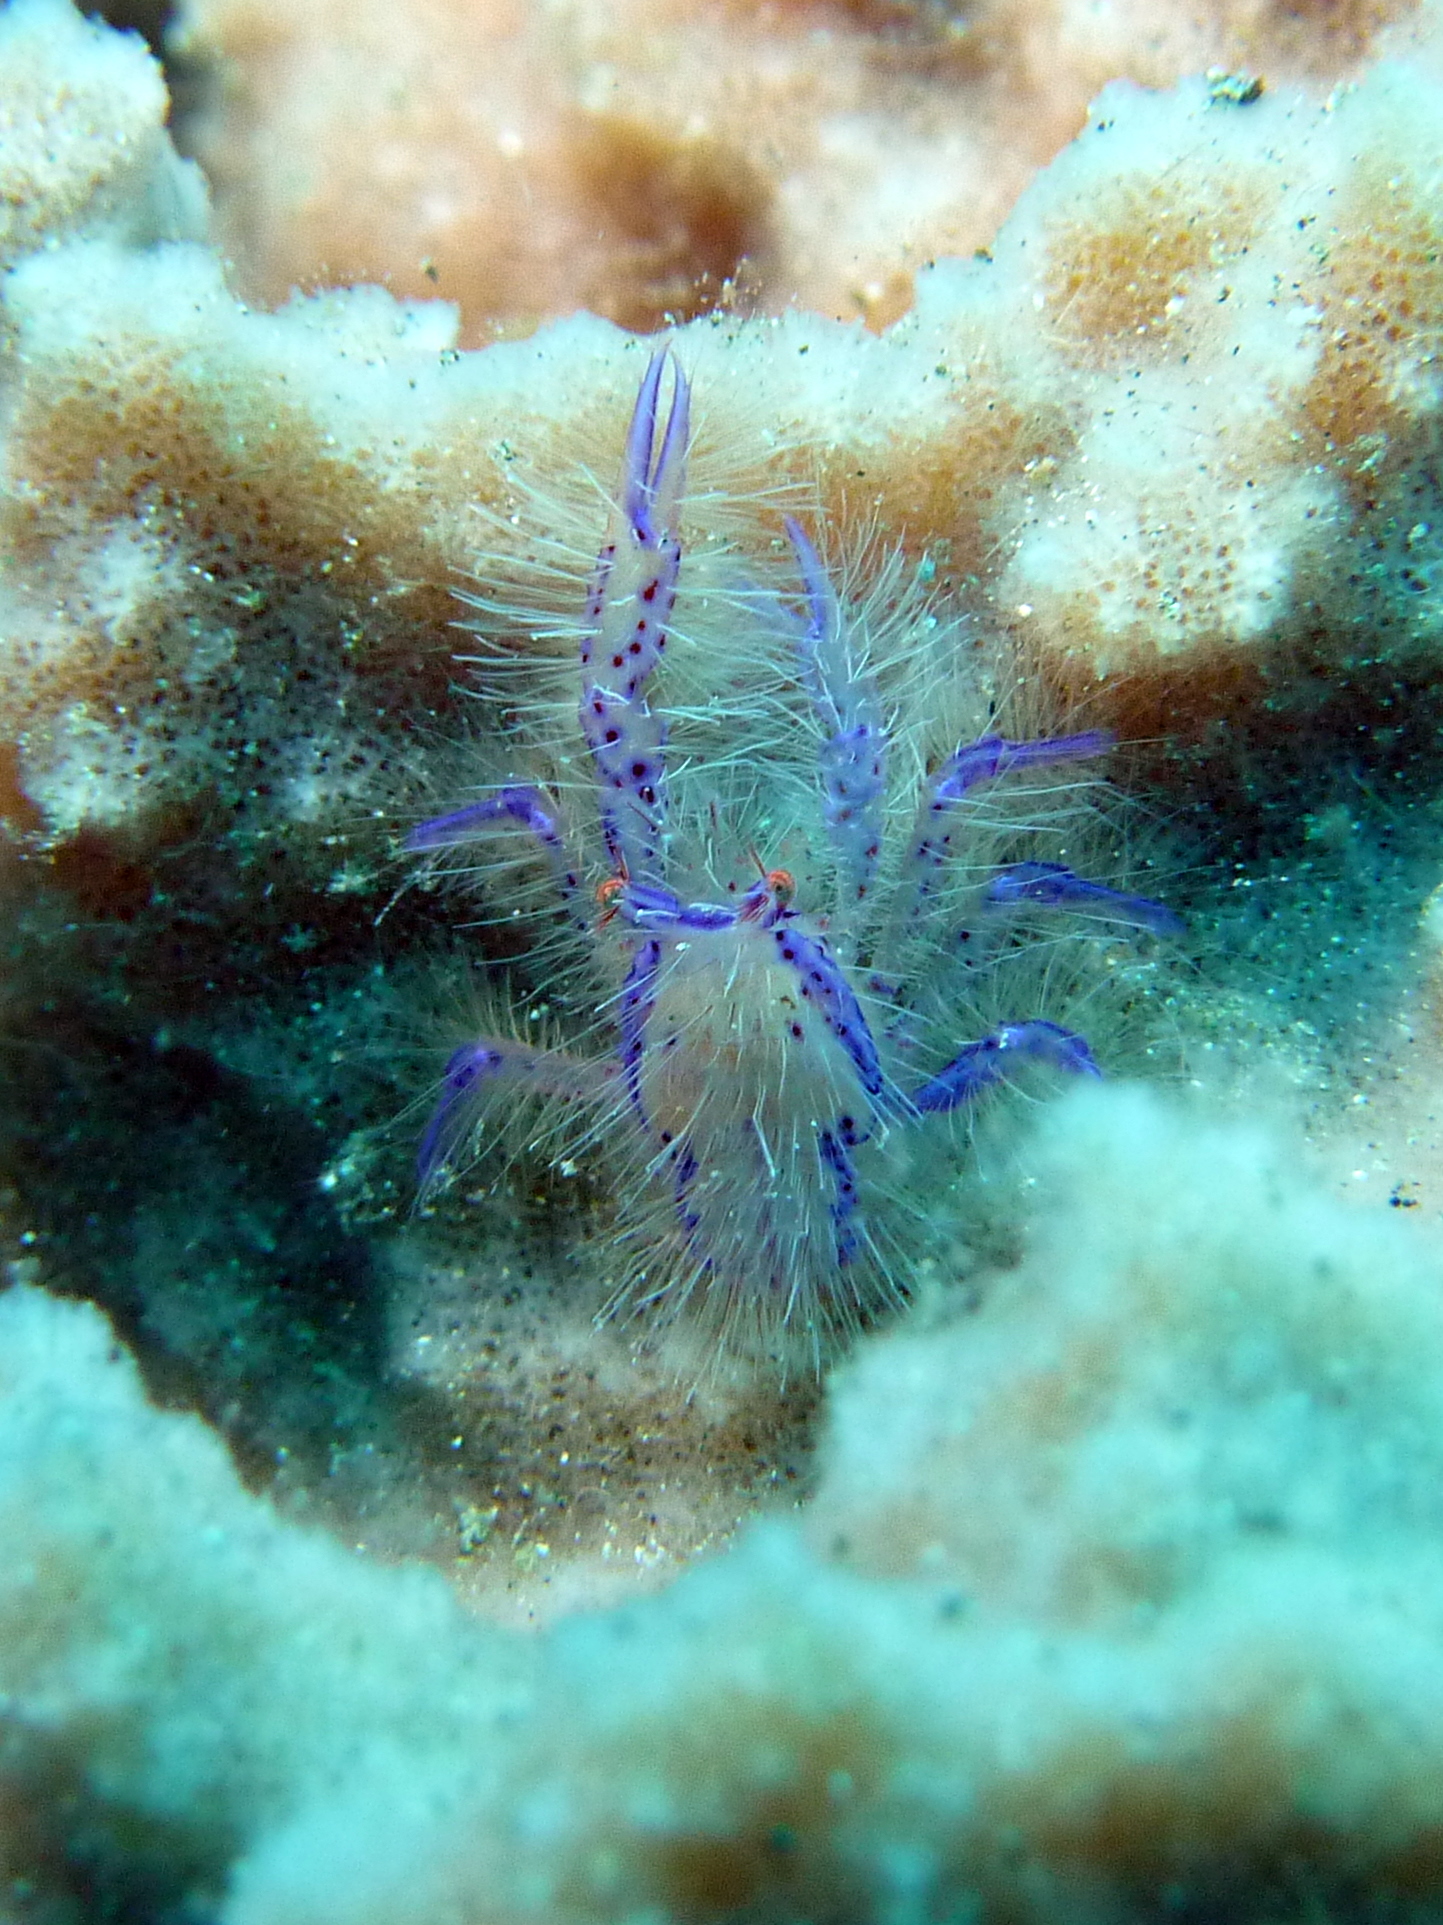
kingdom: Animalia
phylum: Arthropoda
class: Malacostraca
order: Decapoda
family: Galatheidae
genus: Lauriea
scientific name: Lauriea siagiani
